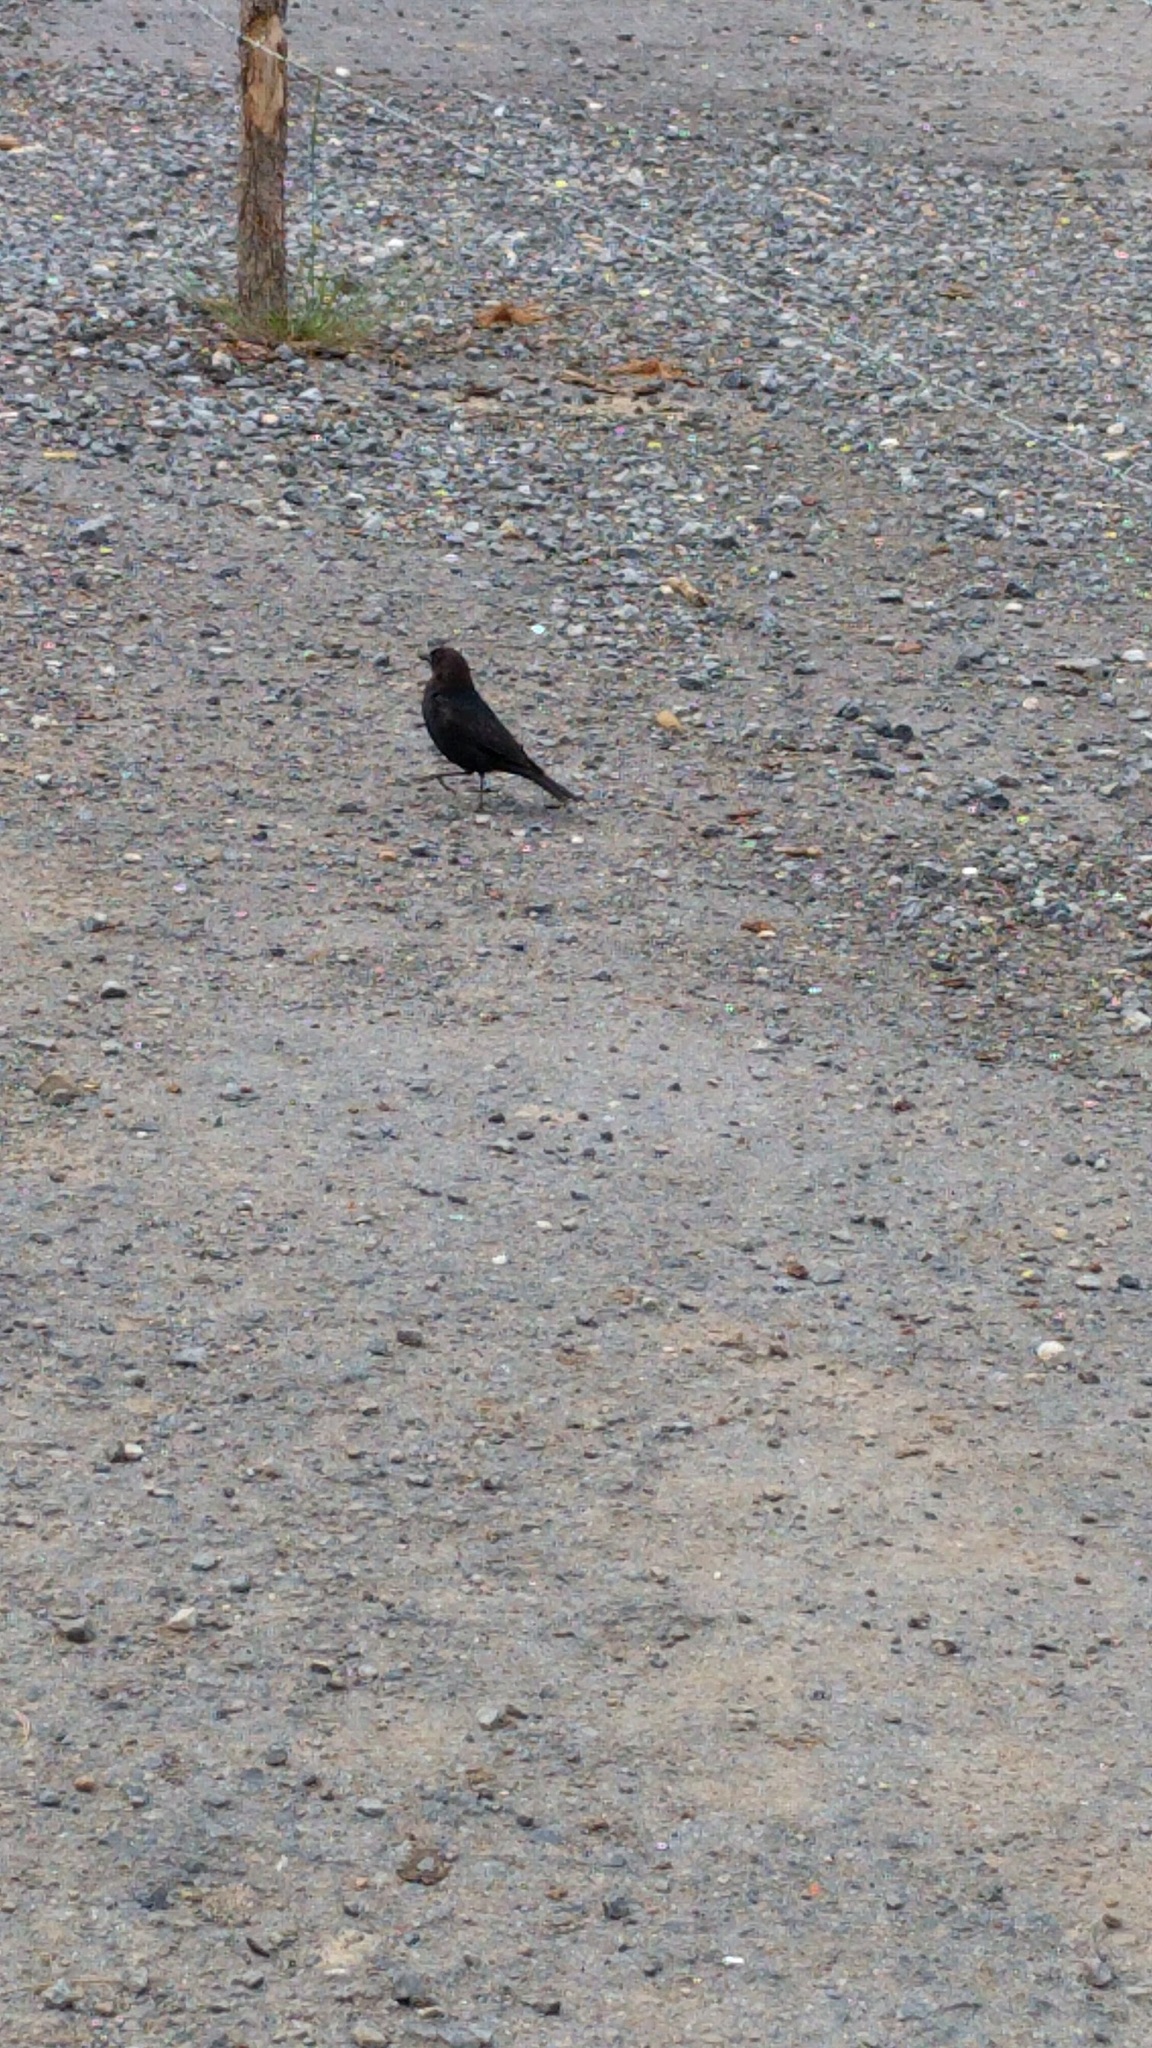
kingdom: Animalia
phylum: Chordata
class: Aves
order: Passeriformes
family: Icteridae
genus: Molothrus
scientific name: Molothrus ater
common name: Brown-headed cowbird
